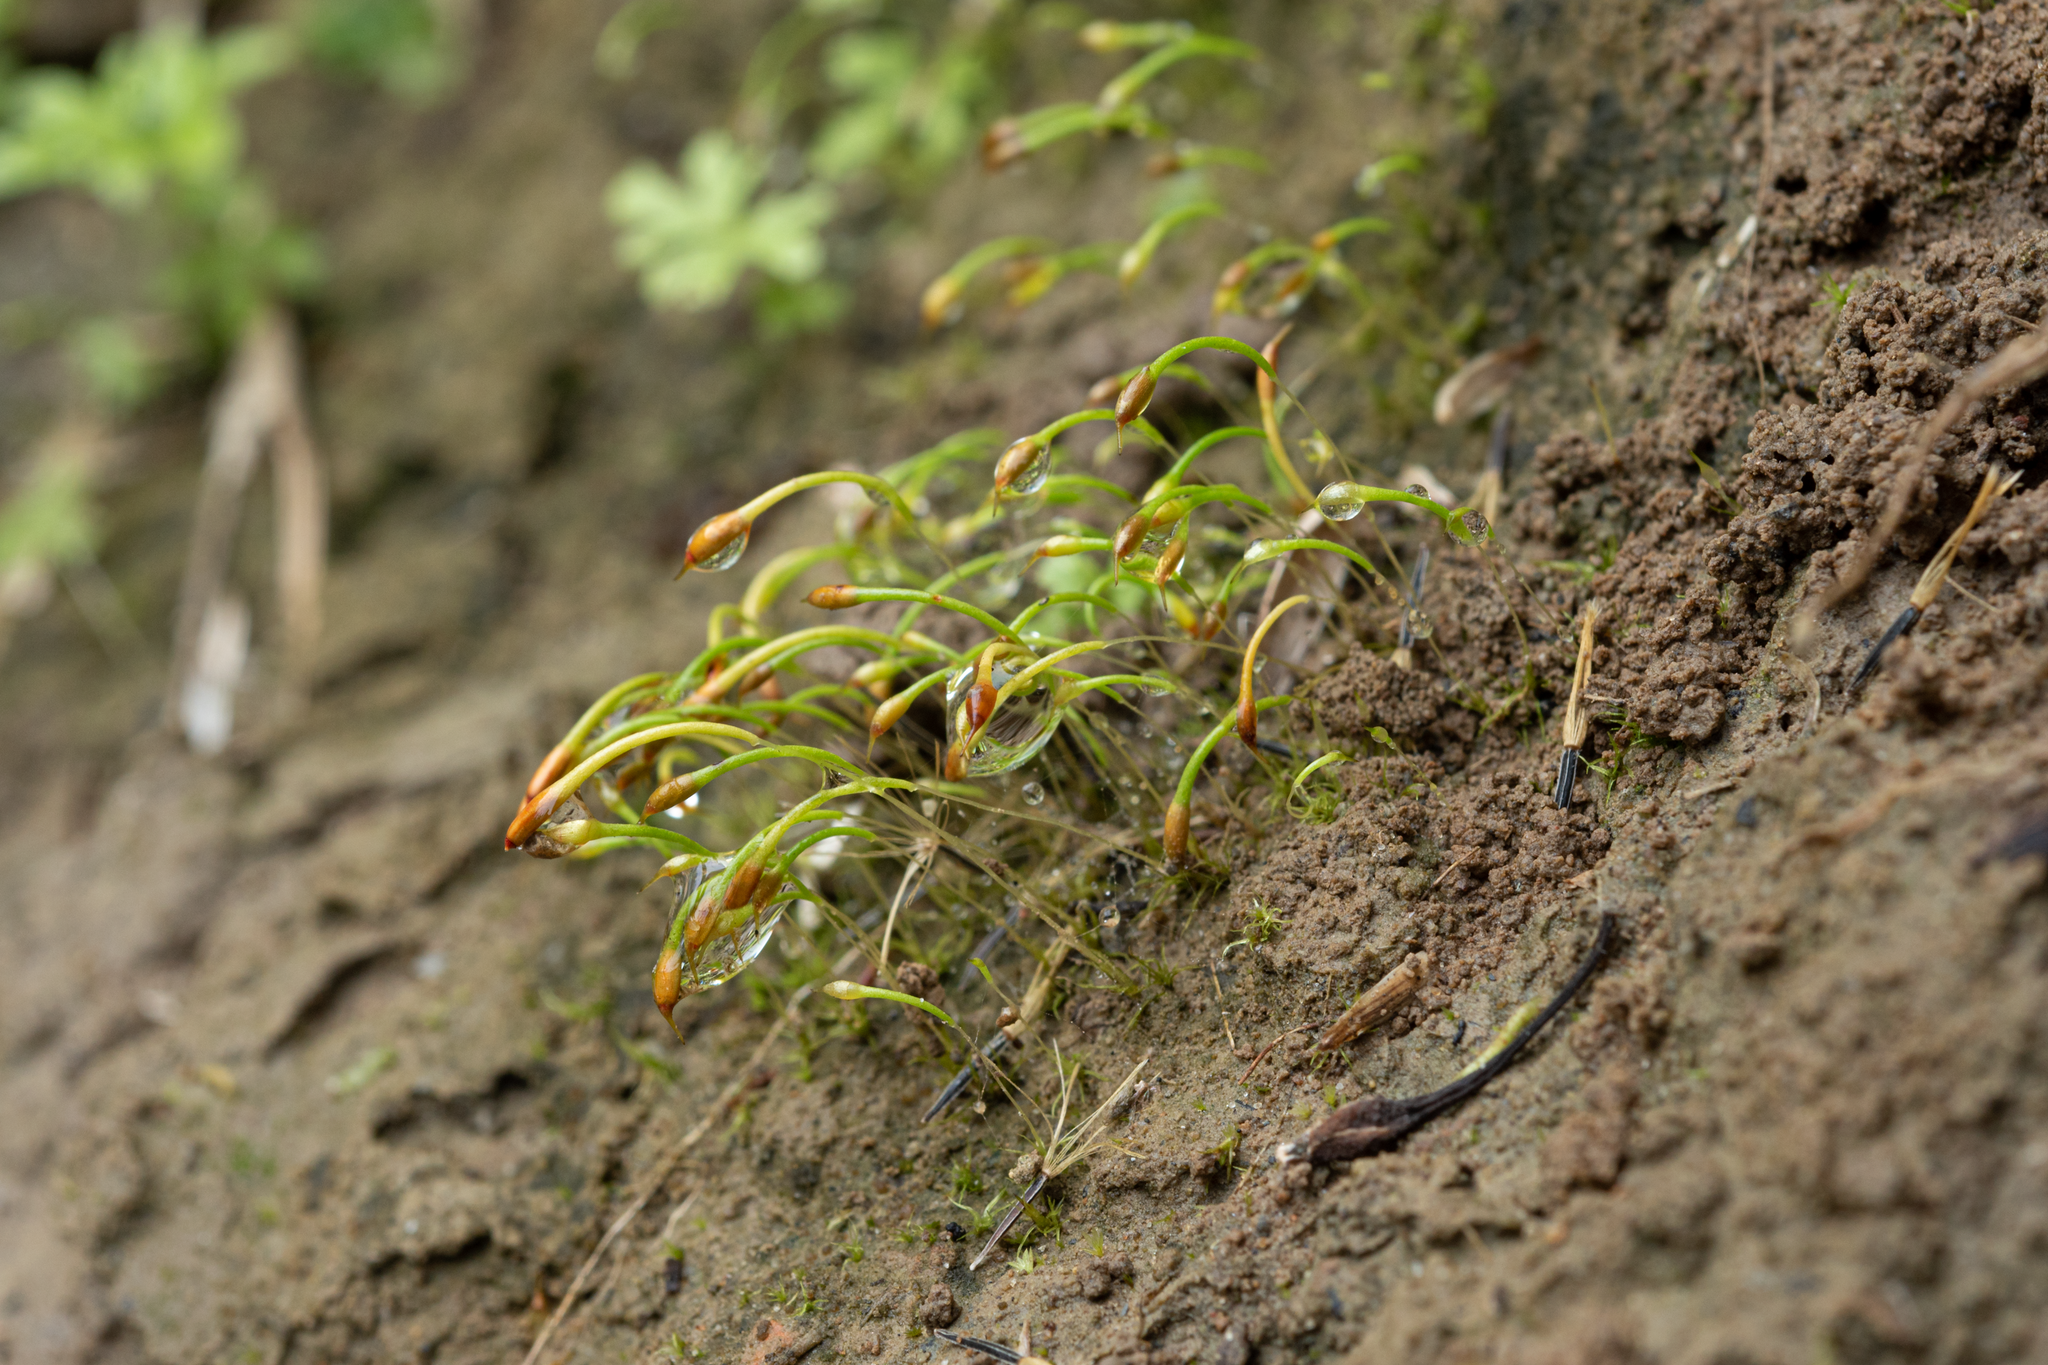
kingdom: Plantae
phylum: Bryophyta
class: Bryopsida
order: Dicranales
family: Bruchiaceae
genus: Trematodon
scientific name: Trematodon longicollis
